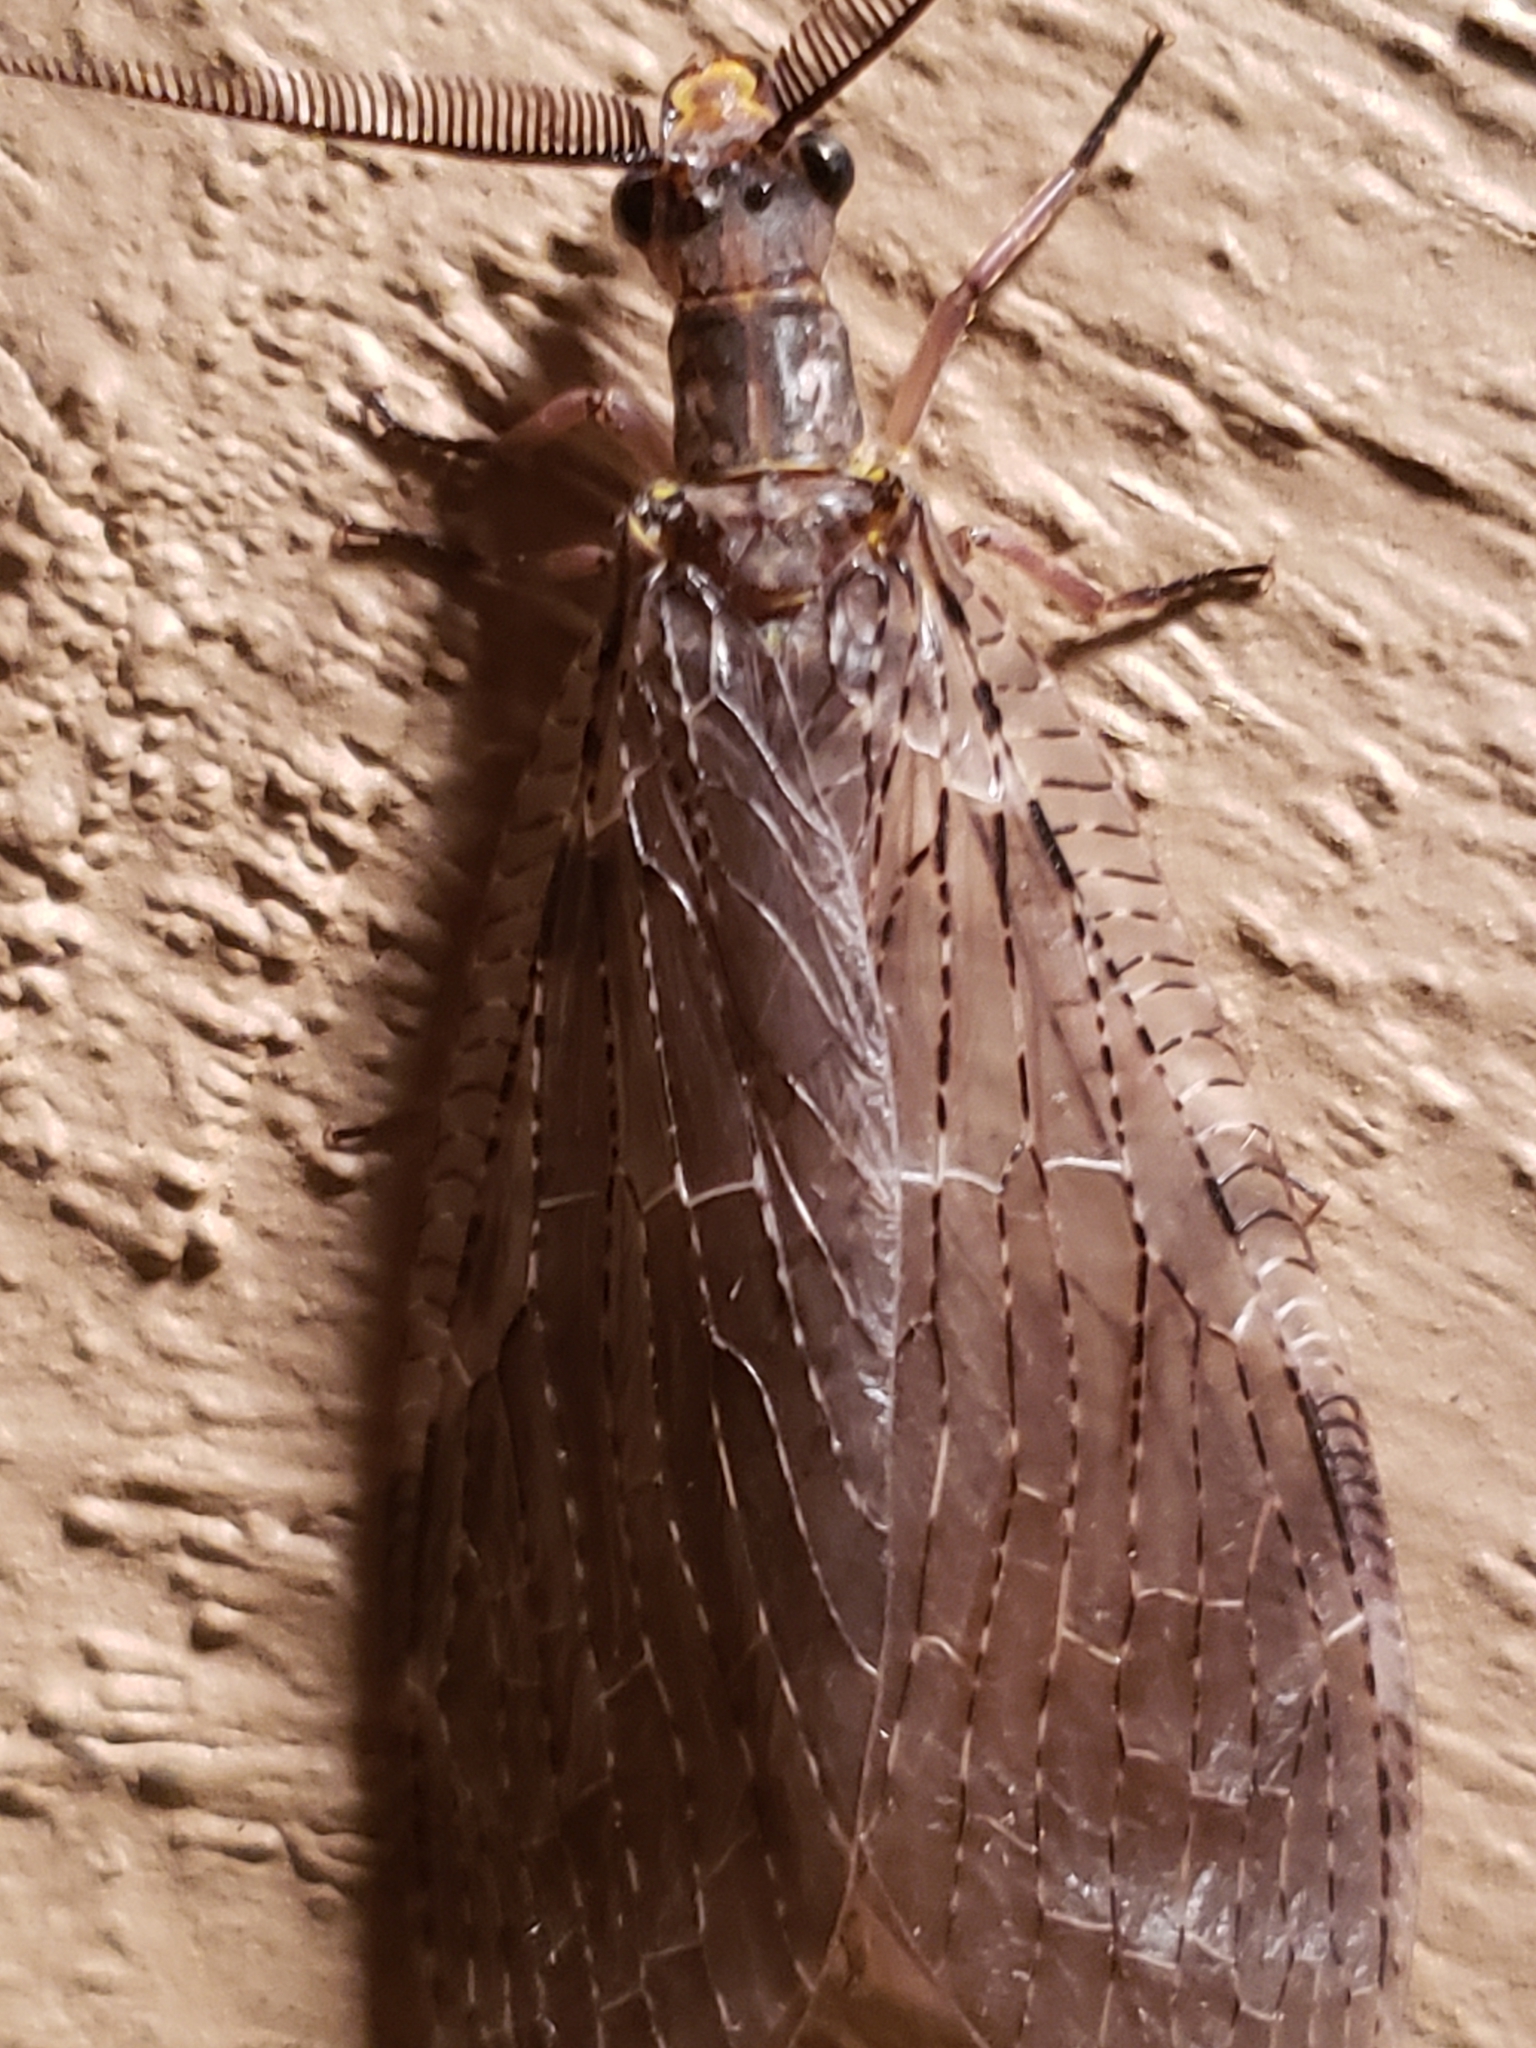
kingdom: Animalia
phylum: Arthropoda
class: Insecta
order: Megaloptera
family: Corydalidae
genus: Chauliodes
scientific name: Chauliodes pectinicornis
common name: Summer fishfly
